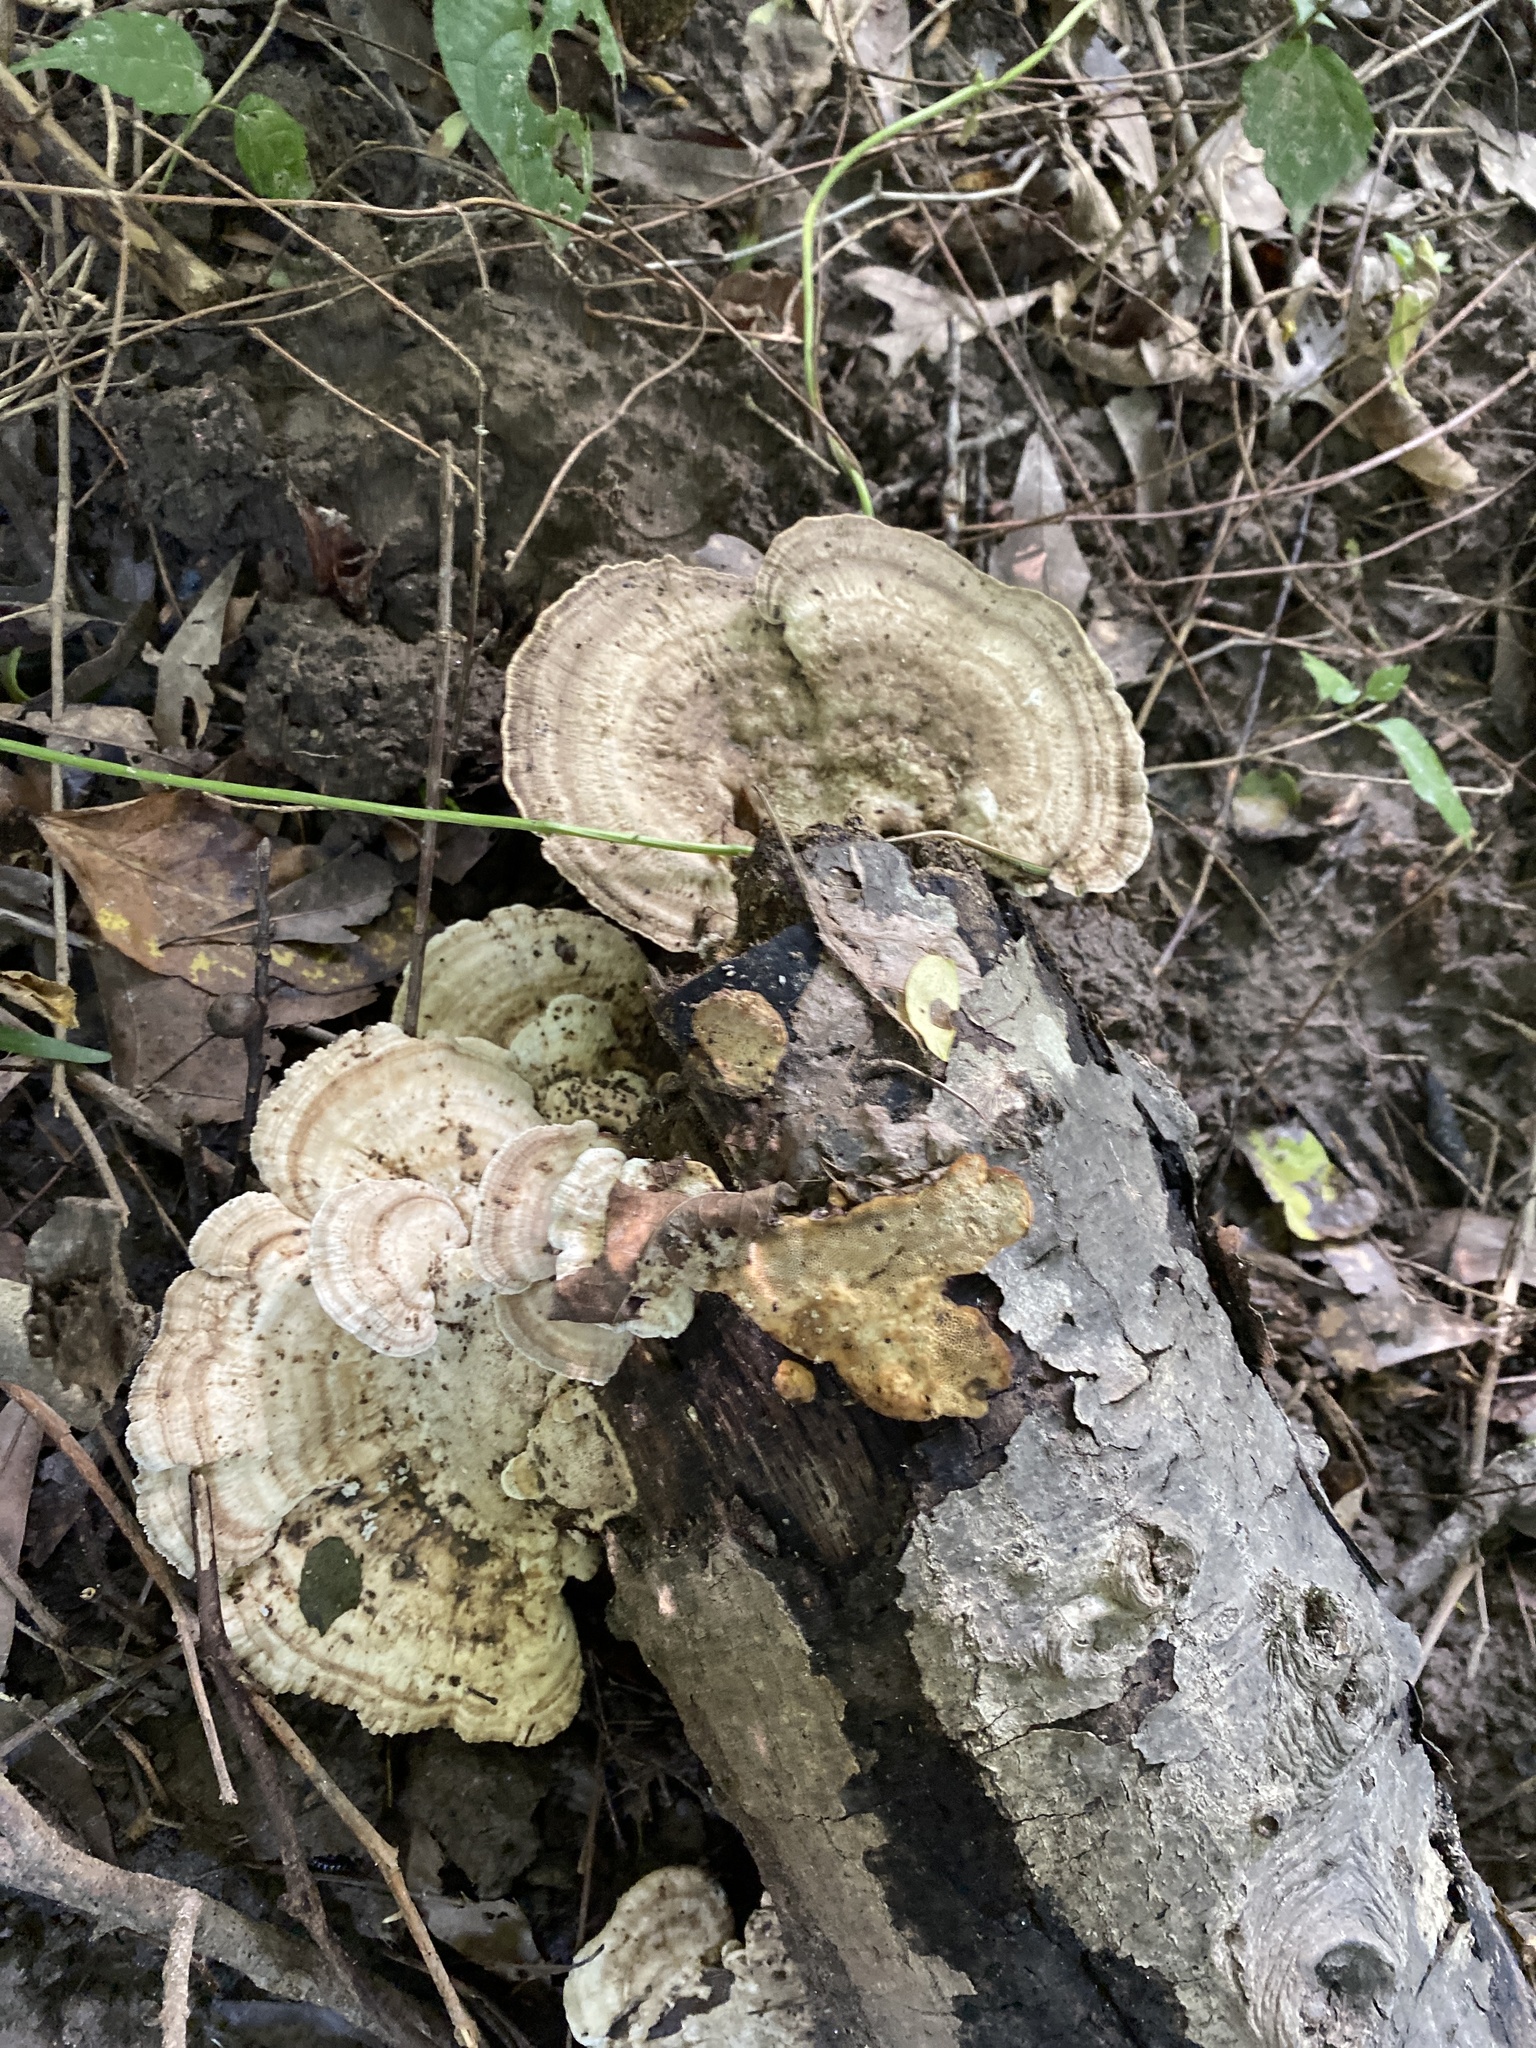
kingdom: Fungi
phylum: Basidiomycota
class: Agaricomycetes
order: Polyporales
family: Polyporaceae
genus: Trametes
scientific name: Trametes lactinea
